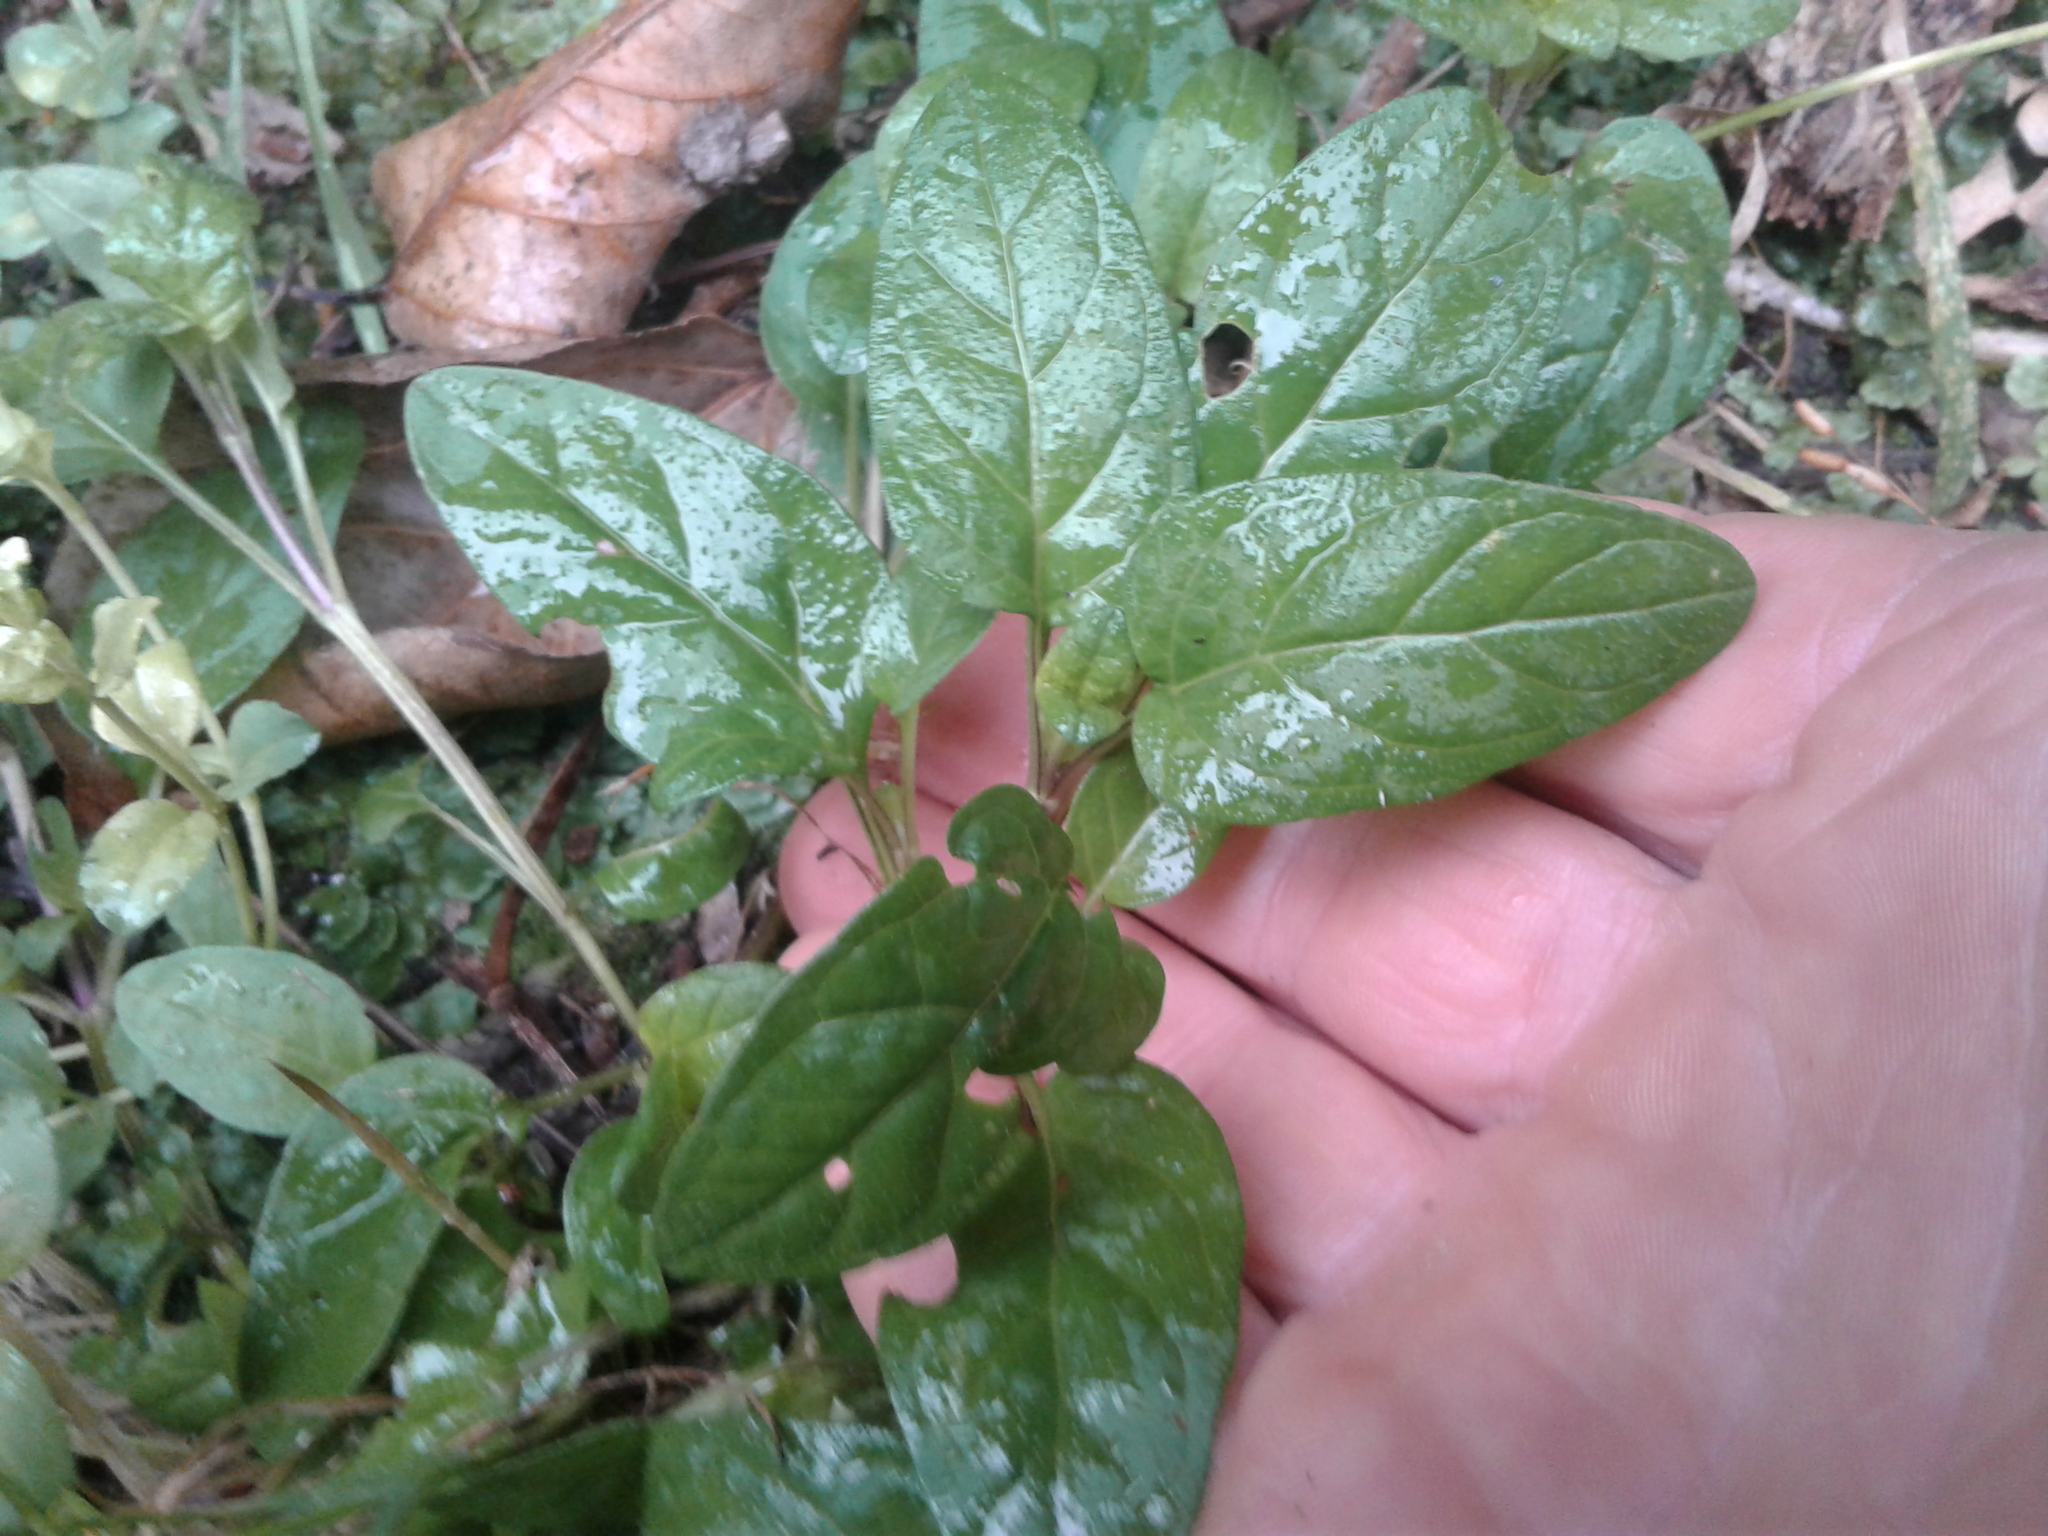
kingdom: Plantae
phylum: Tracheophyta
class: Magnoliopsida
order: Lamiales
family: Lamiaceae
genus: Prunella
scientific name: Prunella vulgaris
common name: Heal-all
